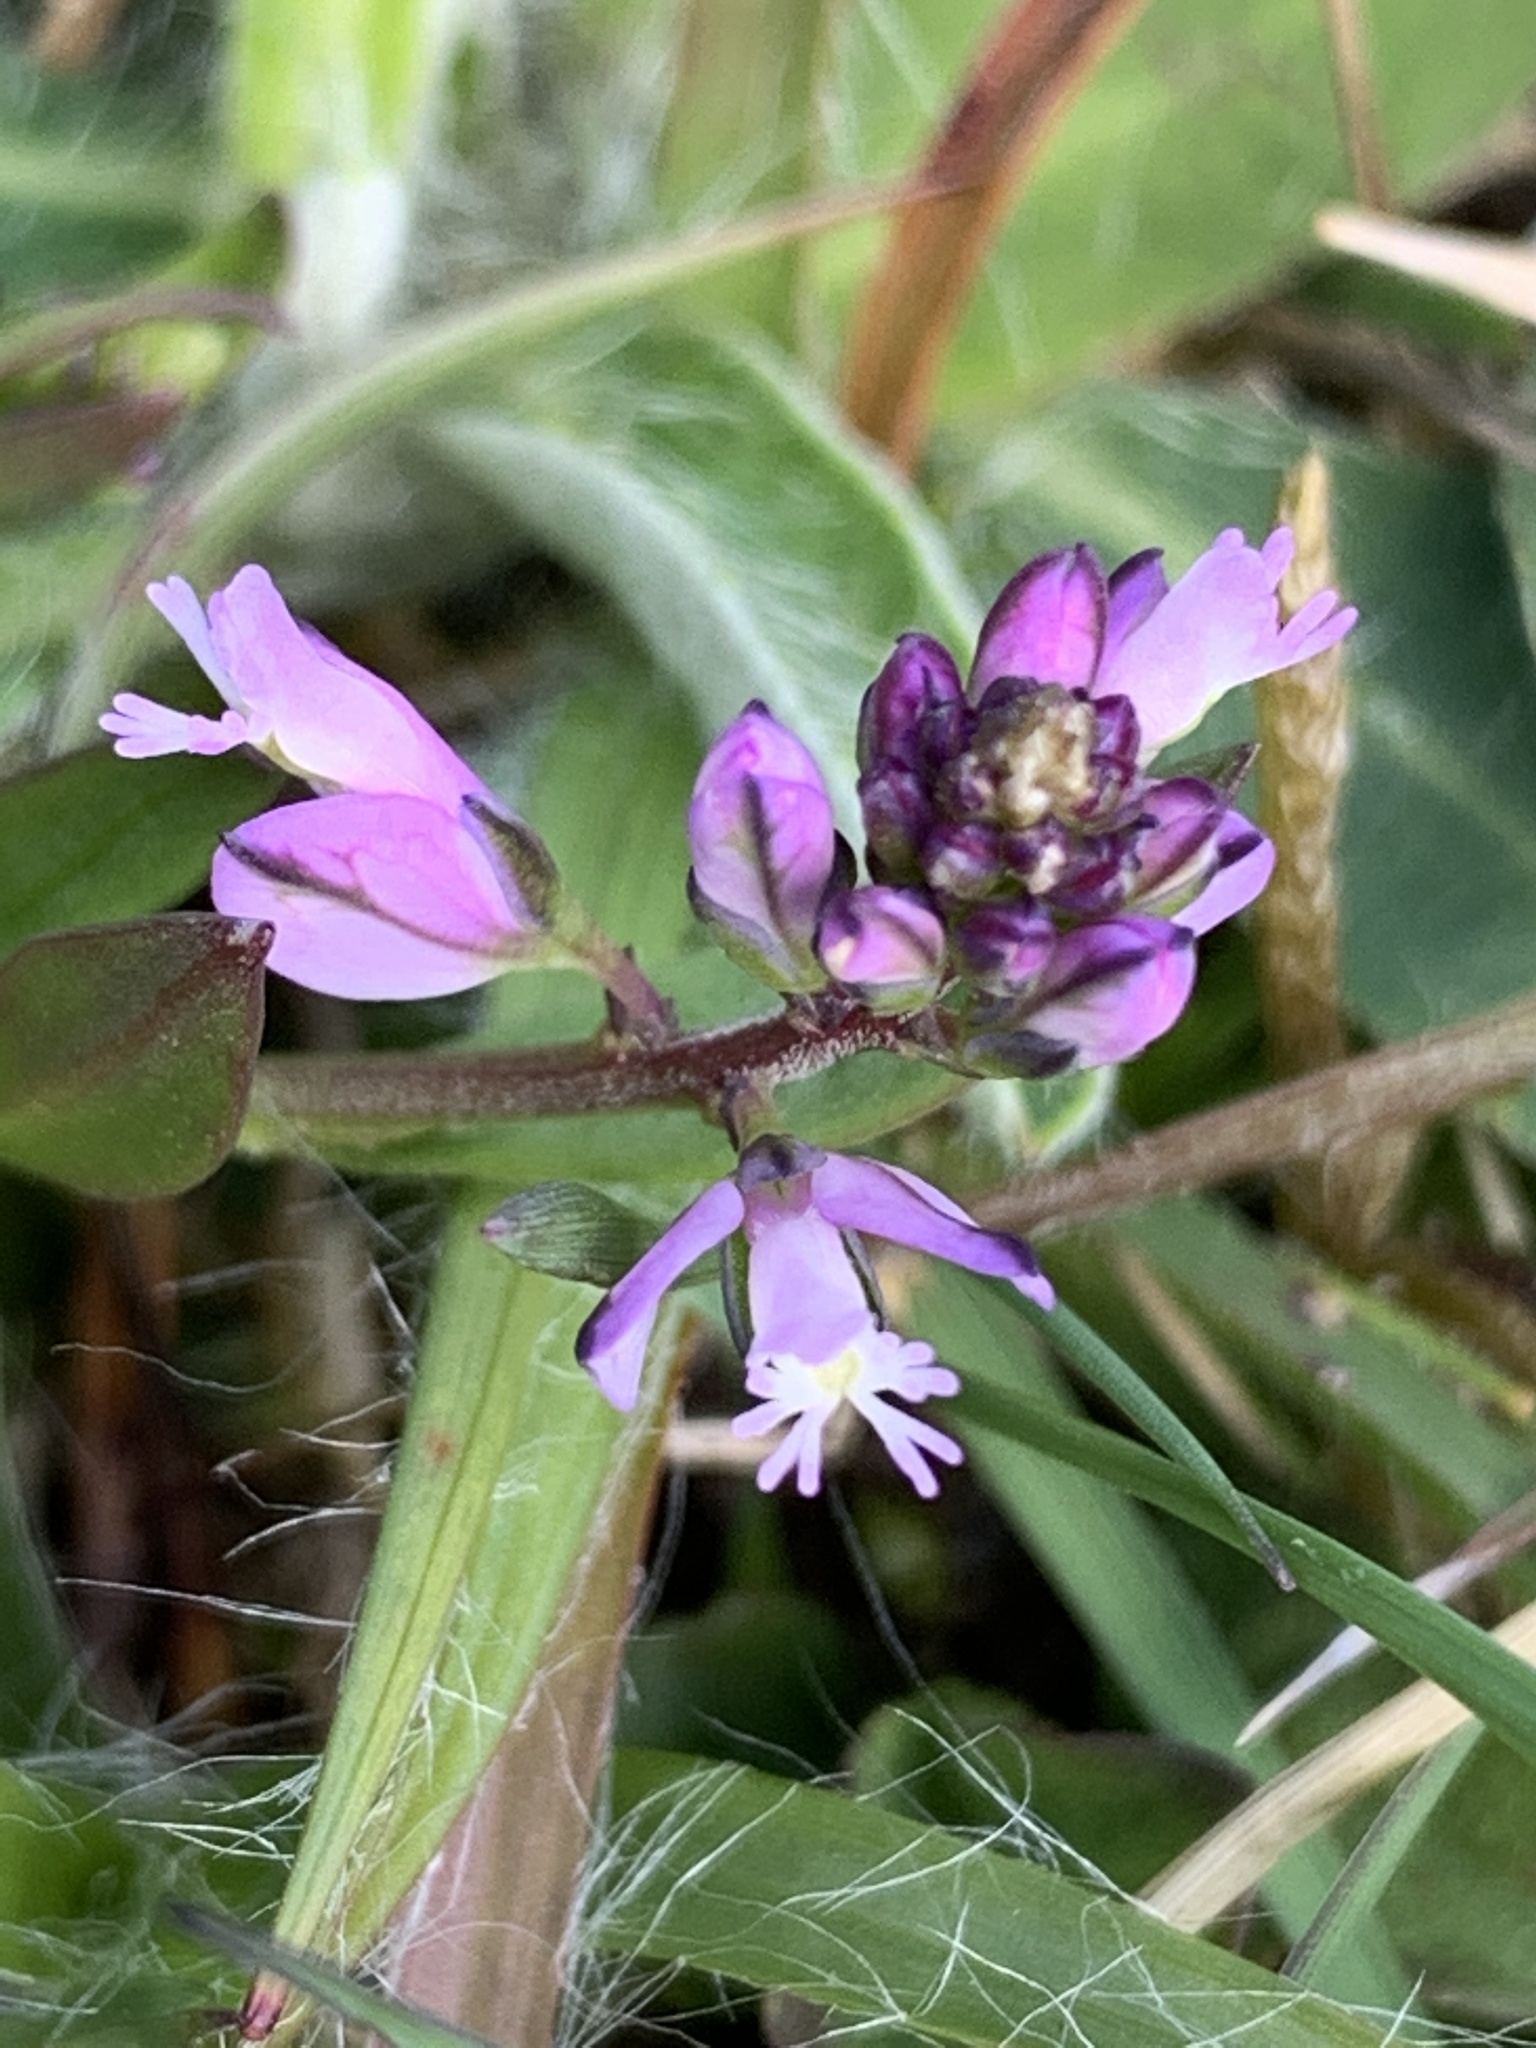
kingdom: Plantae
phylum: Tracheophyta
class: Magnoliopsida
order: Fabales
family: Polygalaceae
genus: Polygala
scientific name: Polygala vulgaris
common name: Common milkwort
